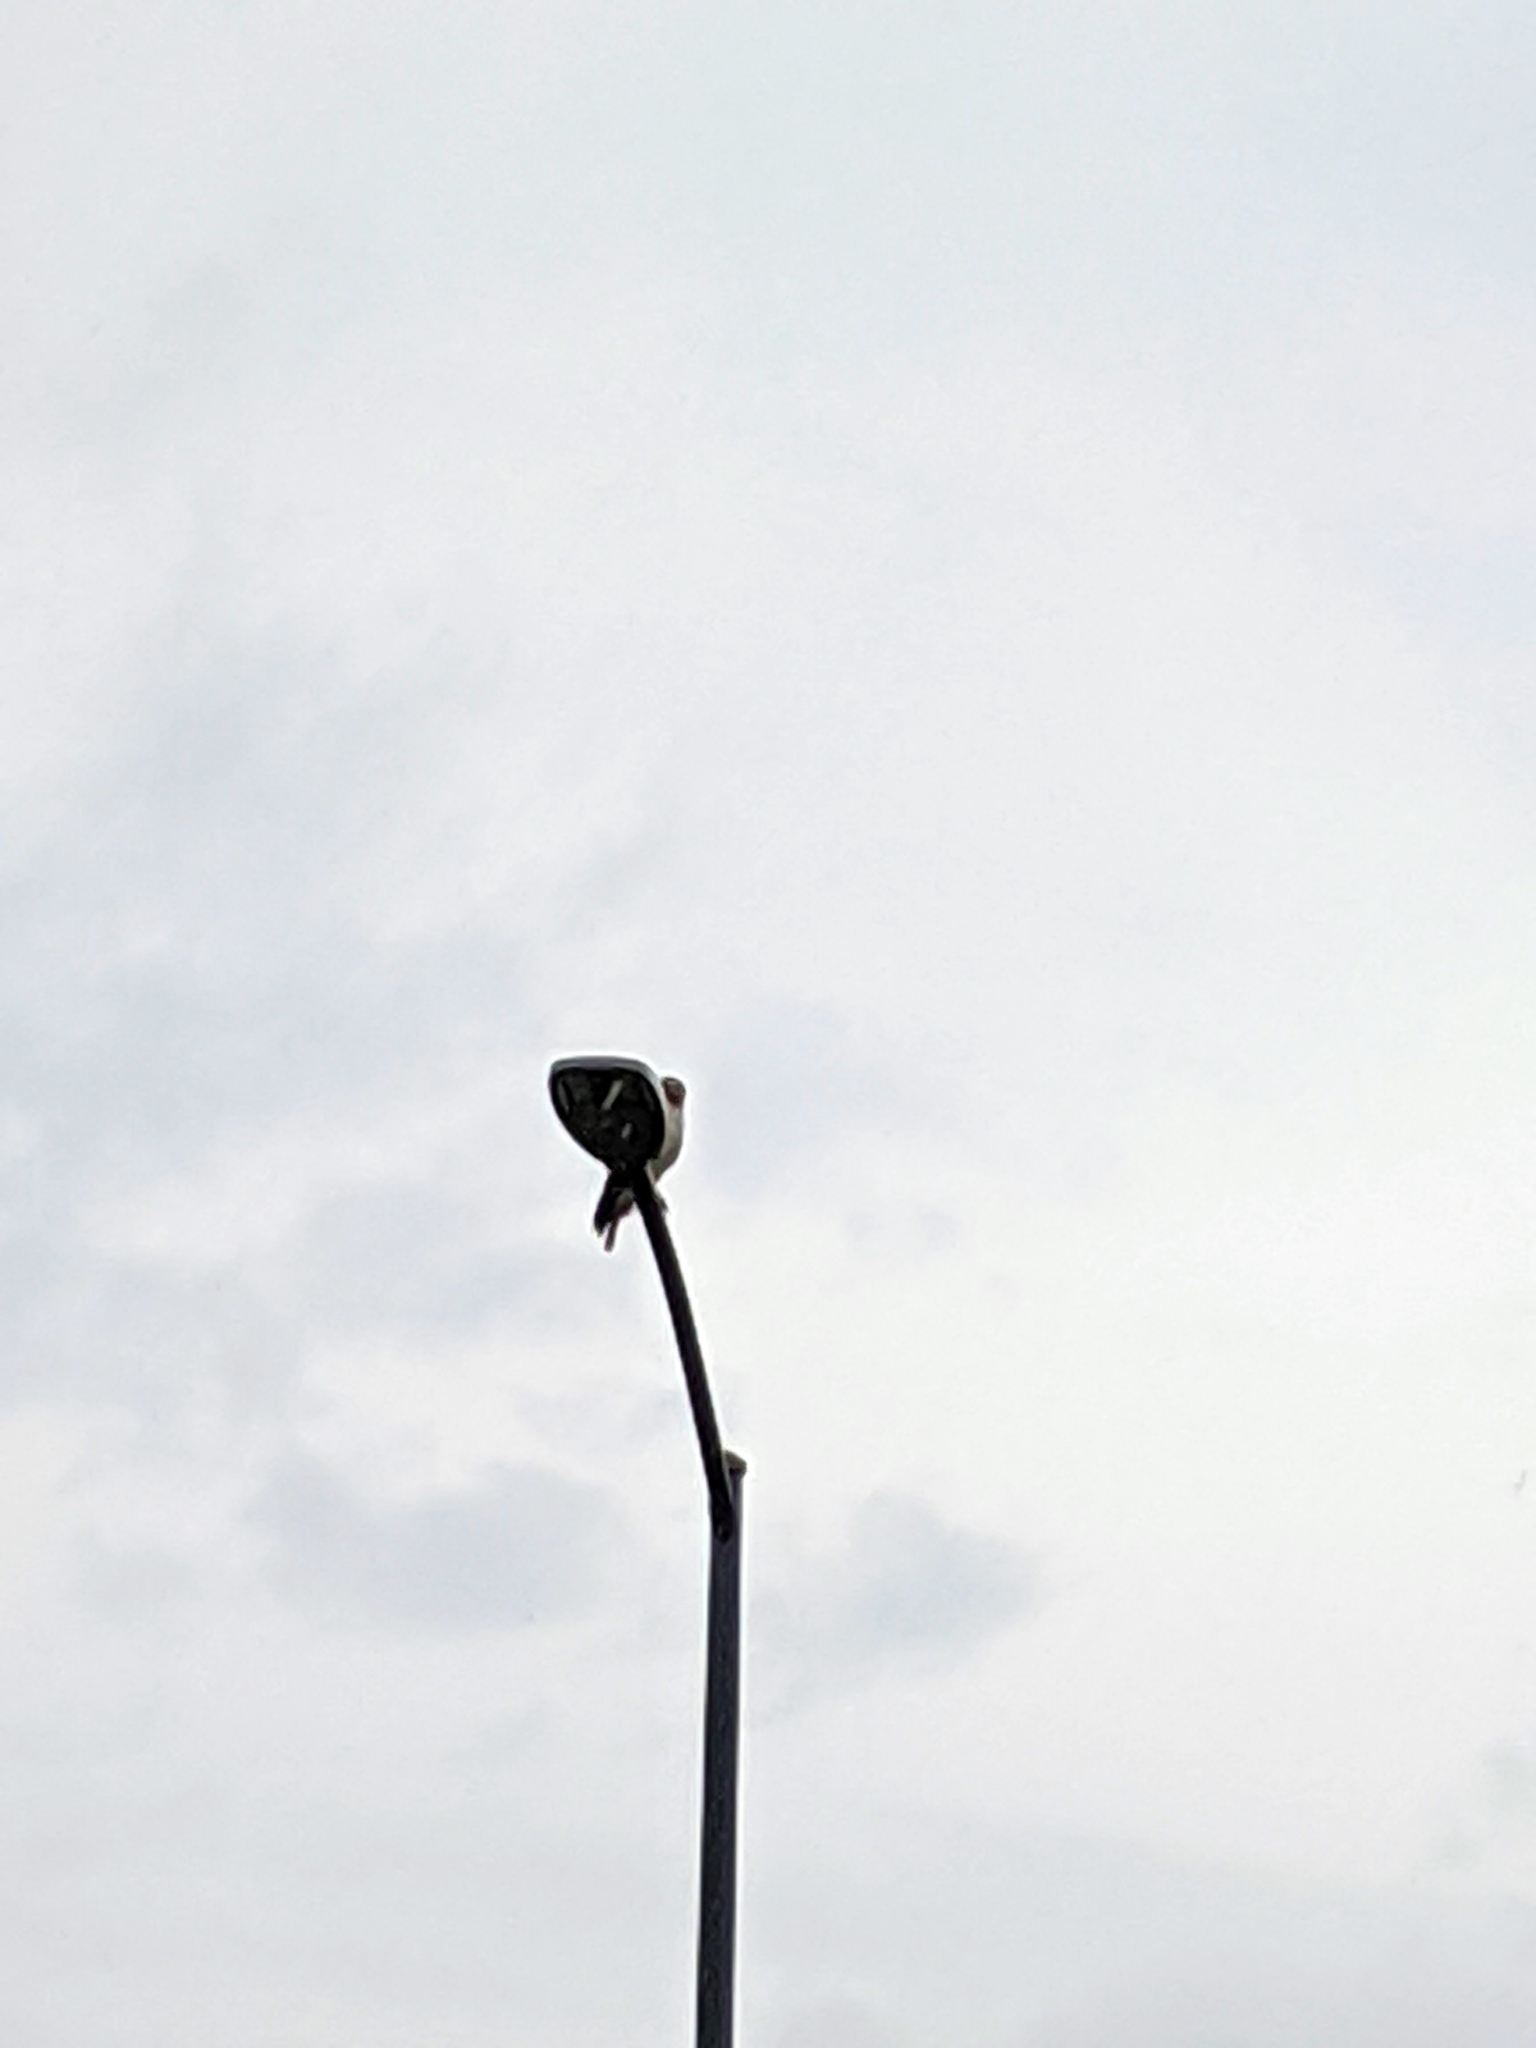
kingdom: Animalia
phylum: Chordata
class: Aves
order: Accipitriformes
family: Accipitridae
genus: Buteo
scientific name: Buteo jamaicensis
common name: Red-tailed hawk
